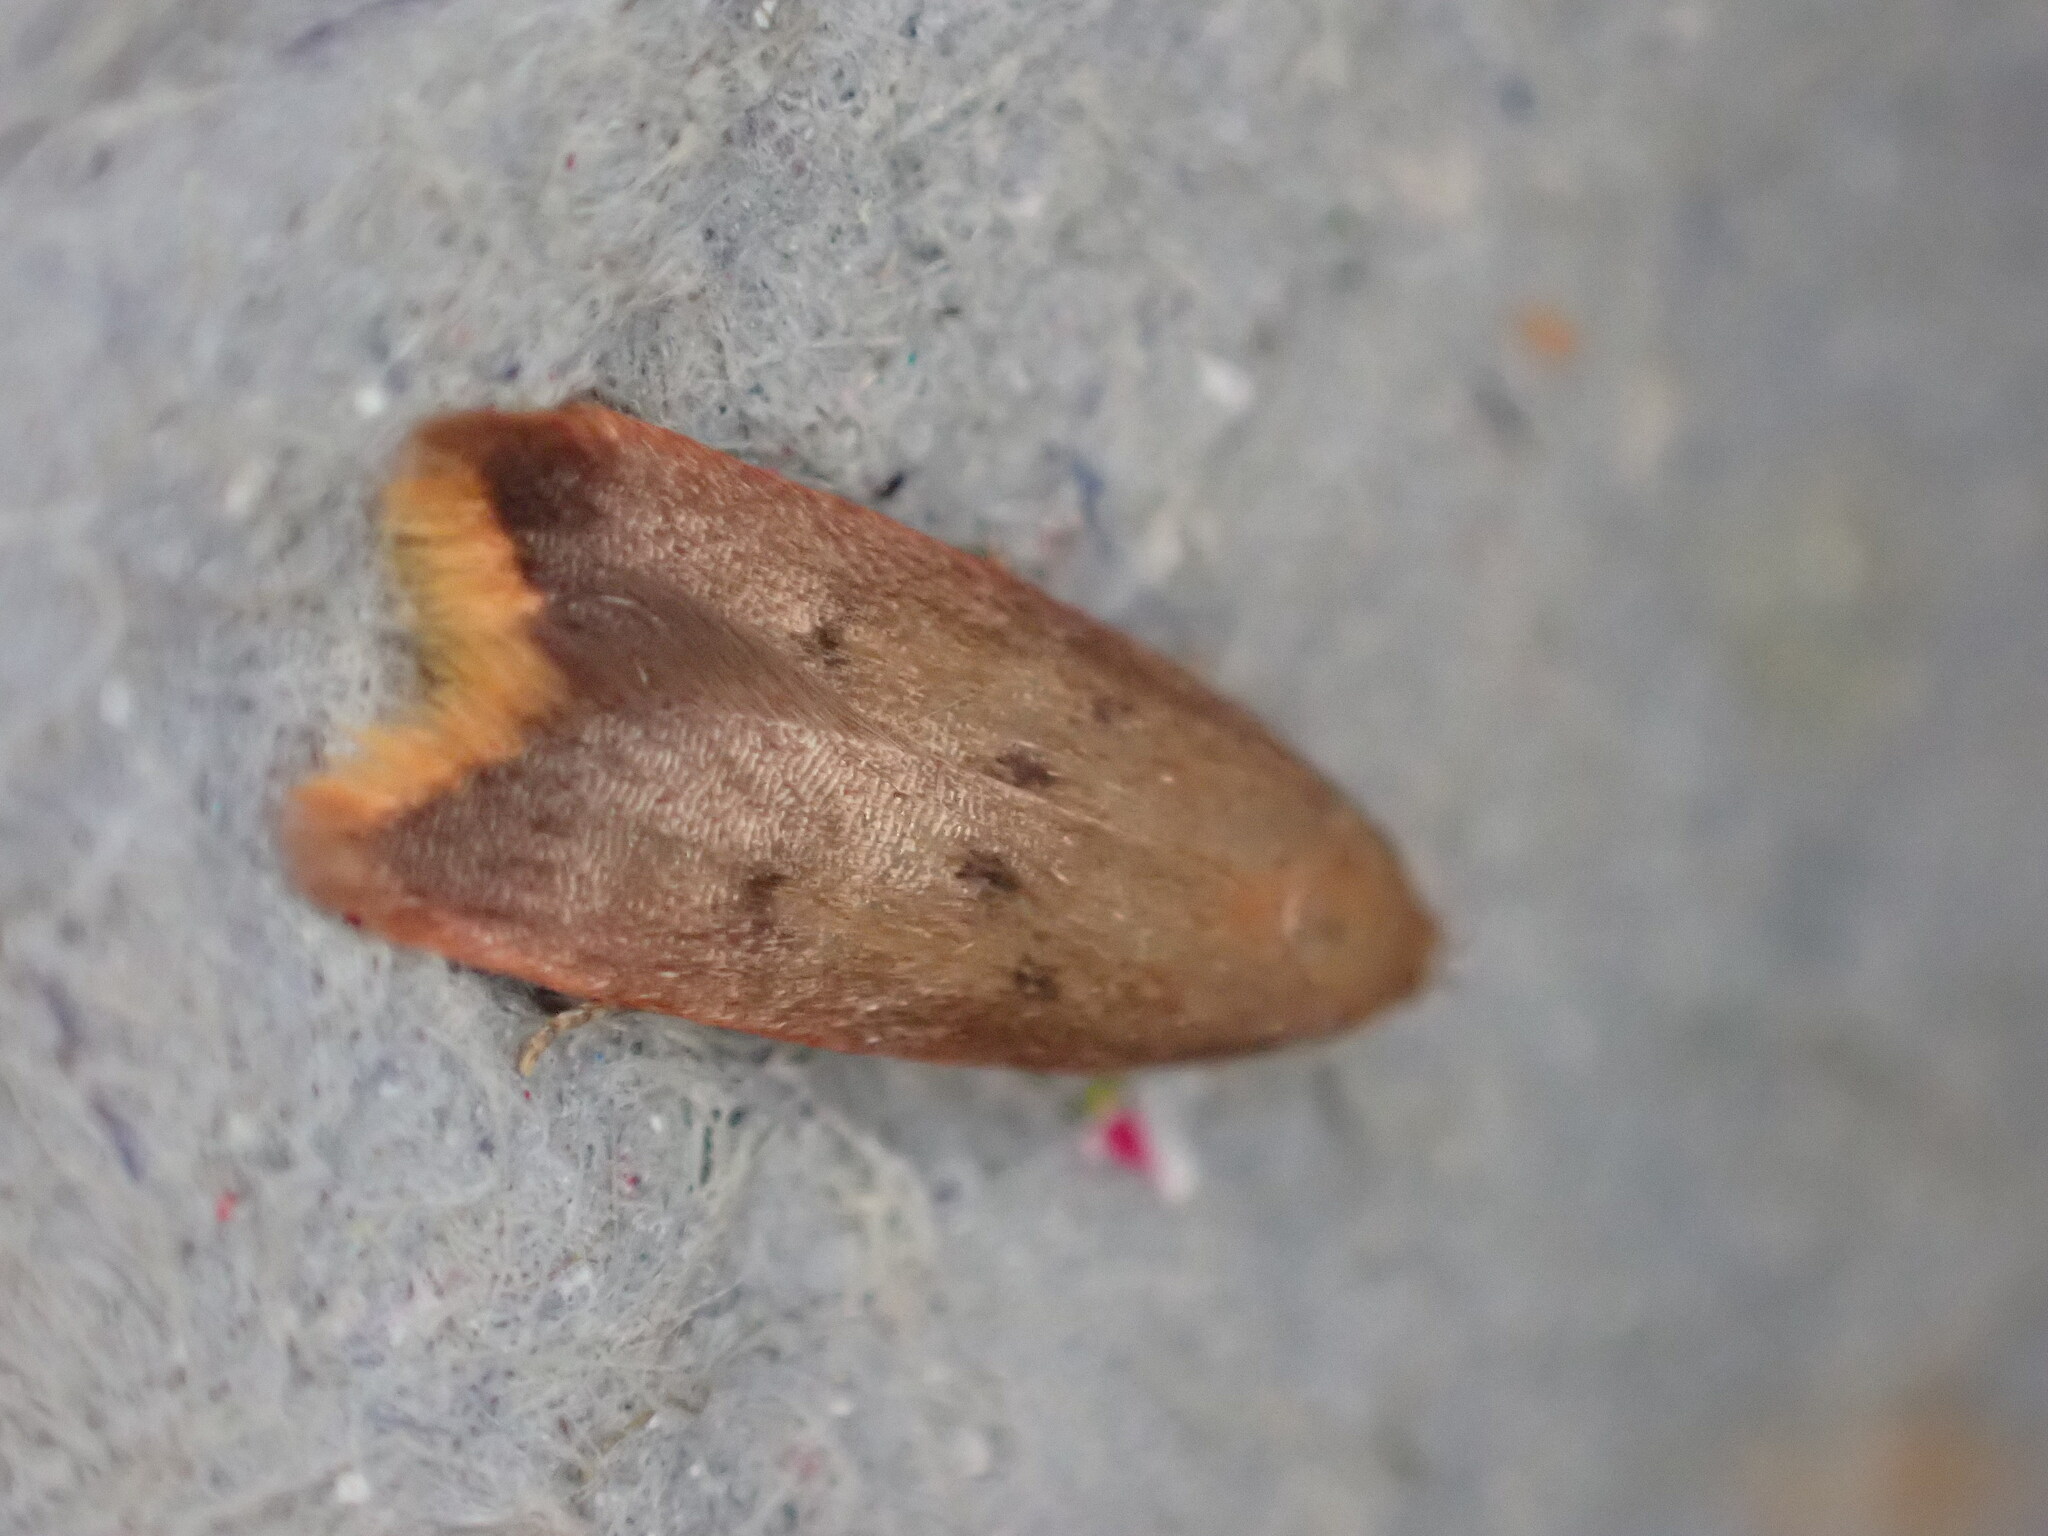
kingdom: Animalia
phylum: Arthropoda
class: Insecta
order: Lepidoptera
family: Oecophoridae
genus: Tachystola
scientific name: Tachystola acroxantha
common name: Ruddy streak
